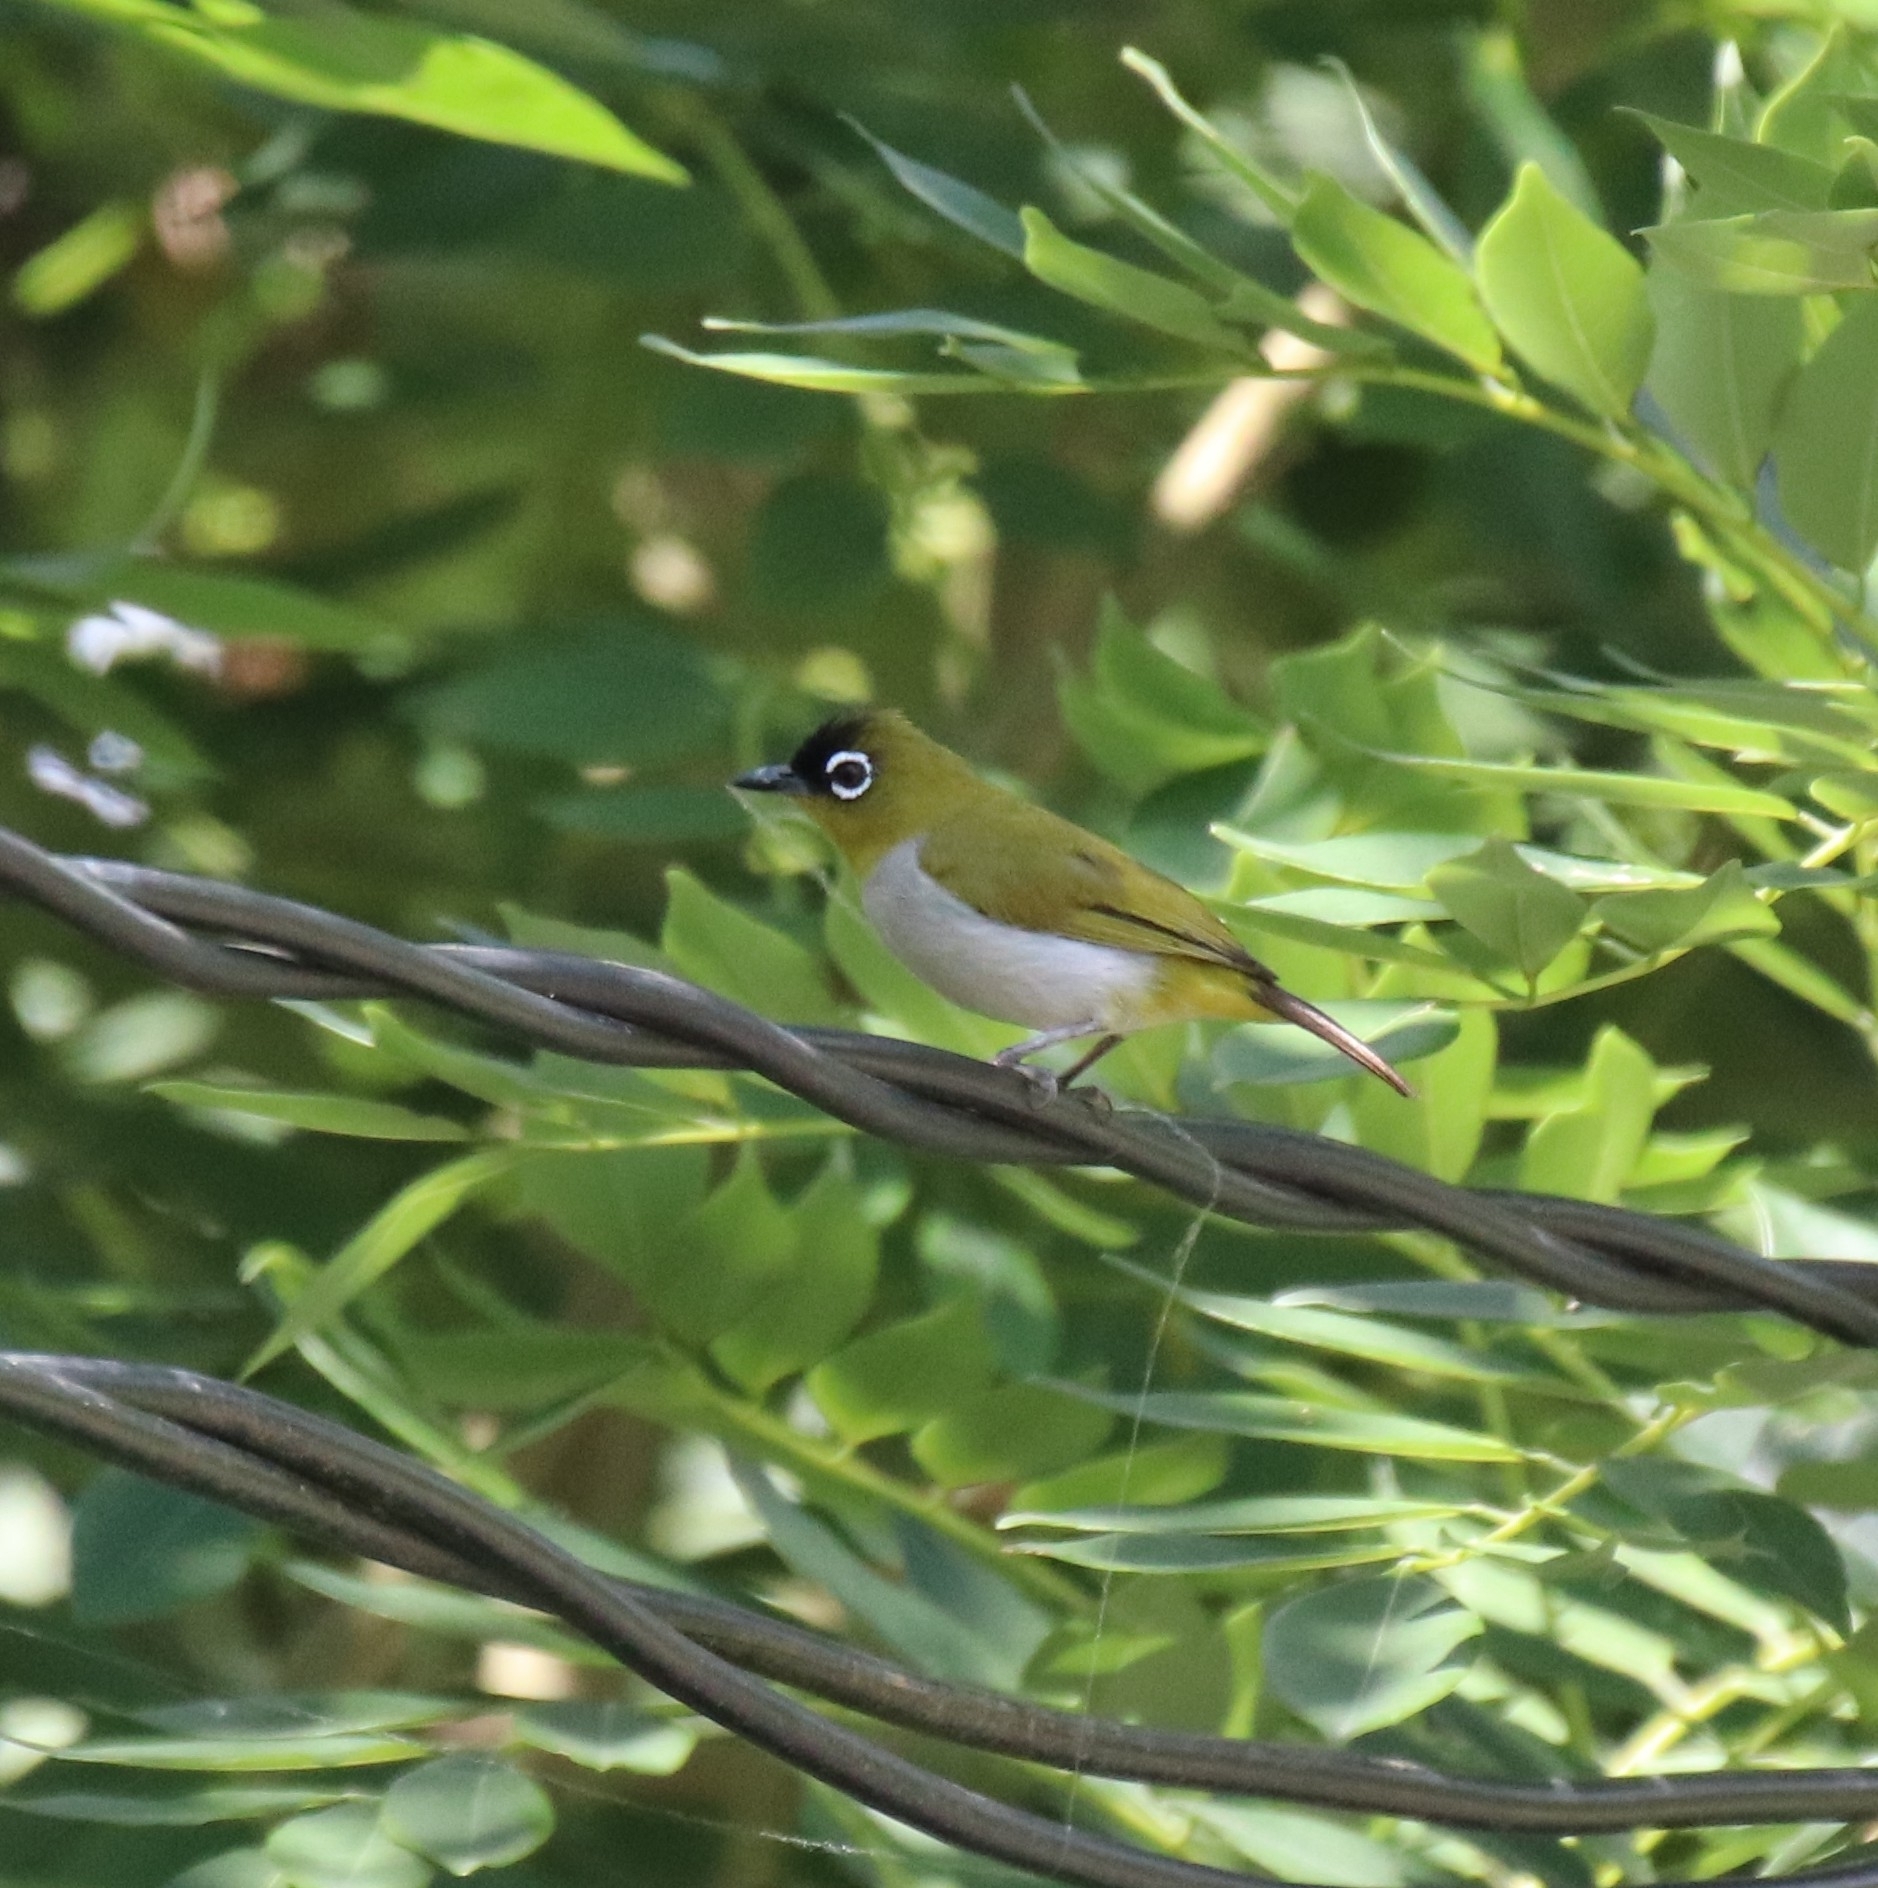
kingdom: Animalia
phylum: Chordata
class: Aves
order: Passeriformes
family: Zosteropidae
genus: Zosterops
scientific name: Zosterops atrifrons
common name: Black-crowned white-eye
